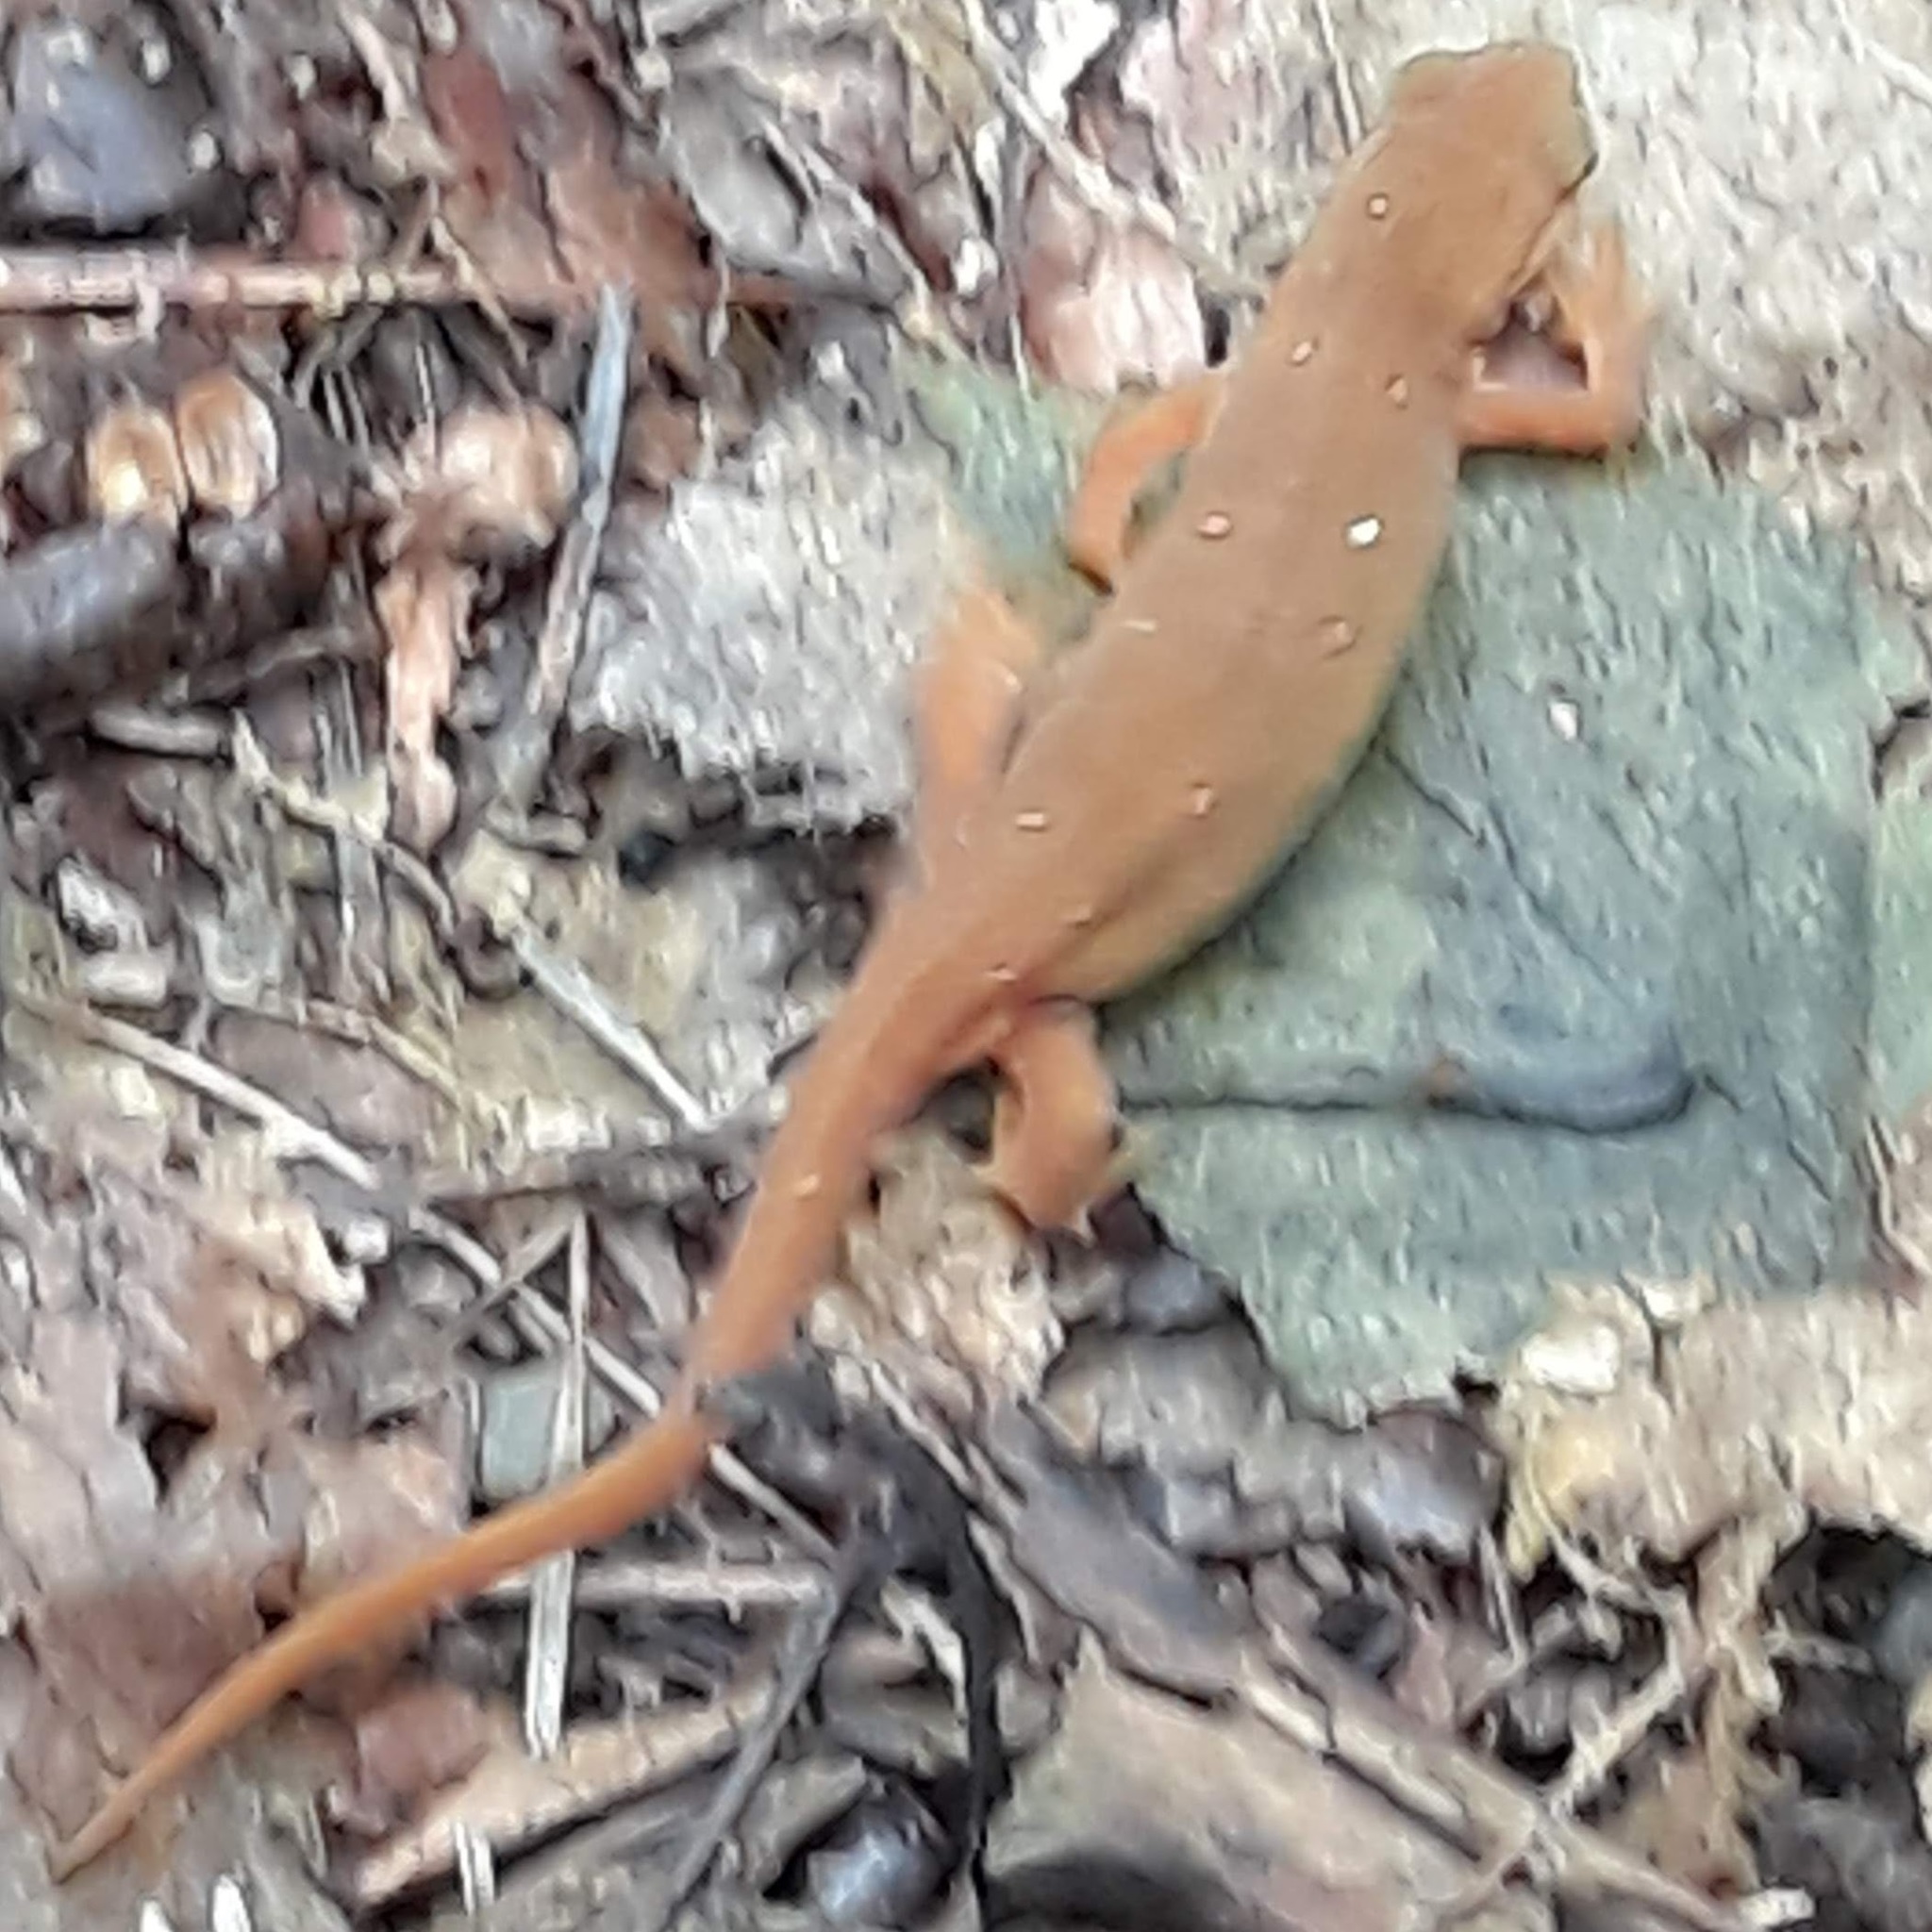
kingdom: Animalia
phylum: Chordata
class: Amphibia
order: Caudata
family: Salamandridae
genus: Notophthalmus
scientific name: Notophthalmus viridescens
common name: Eastern newt
